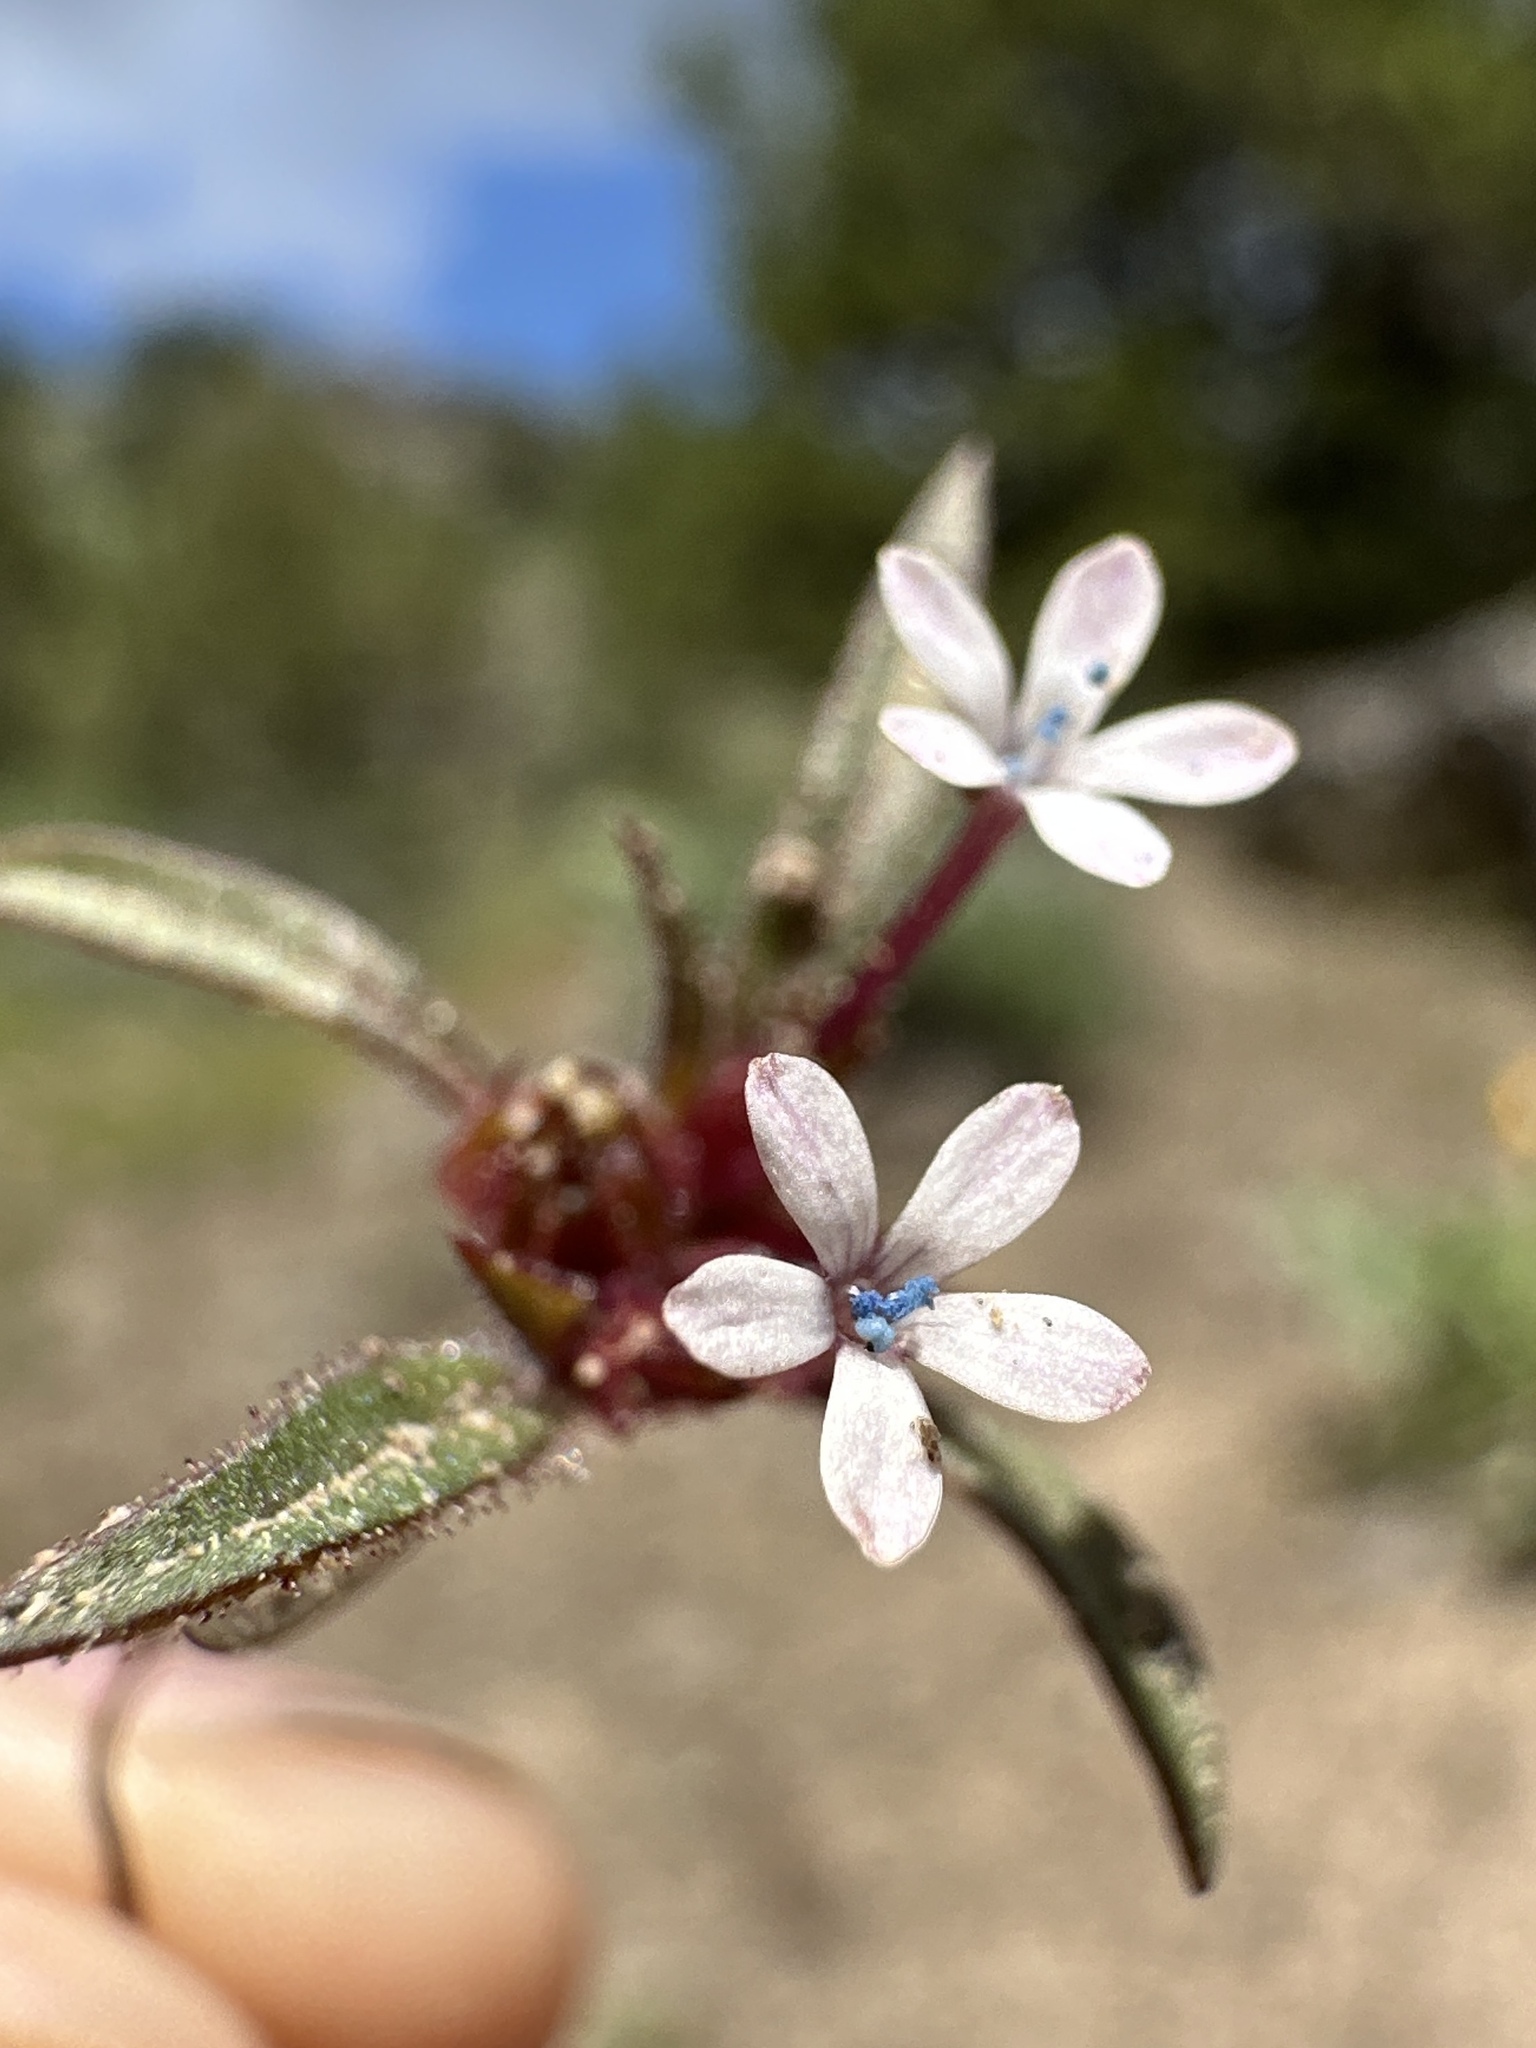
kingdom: Plantae
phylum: Tracheophyta
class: Magnoliopsida
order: Ericales
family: Polemoniaceae
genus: Collomia
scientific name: Collomia tinctoria
